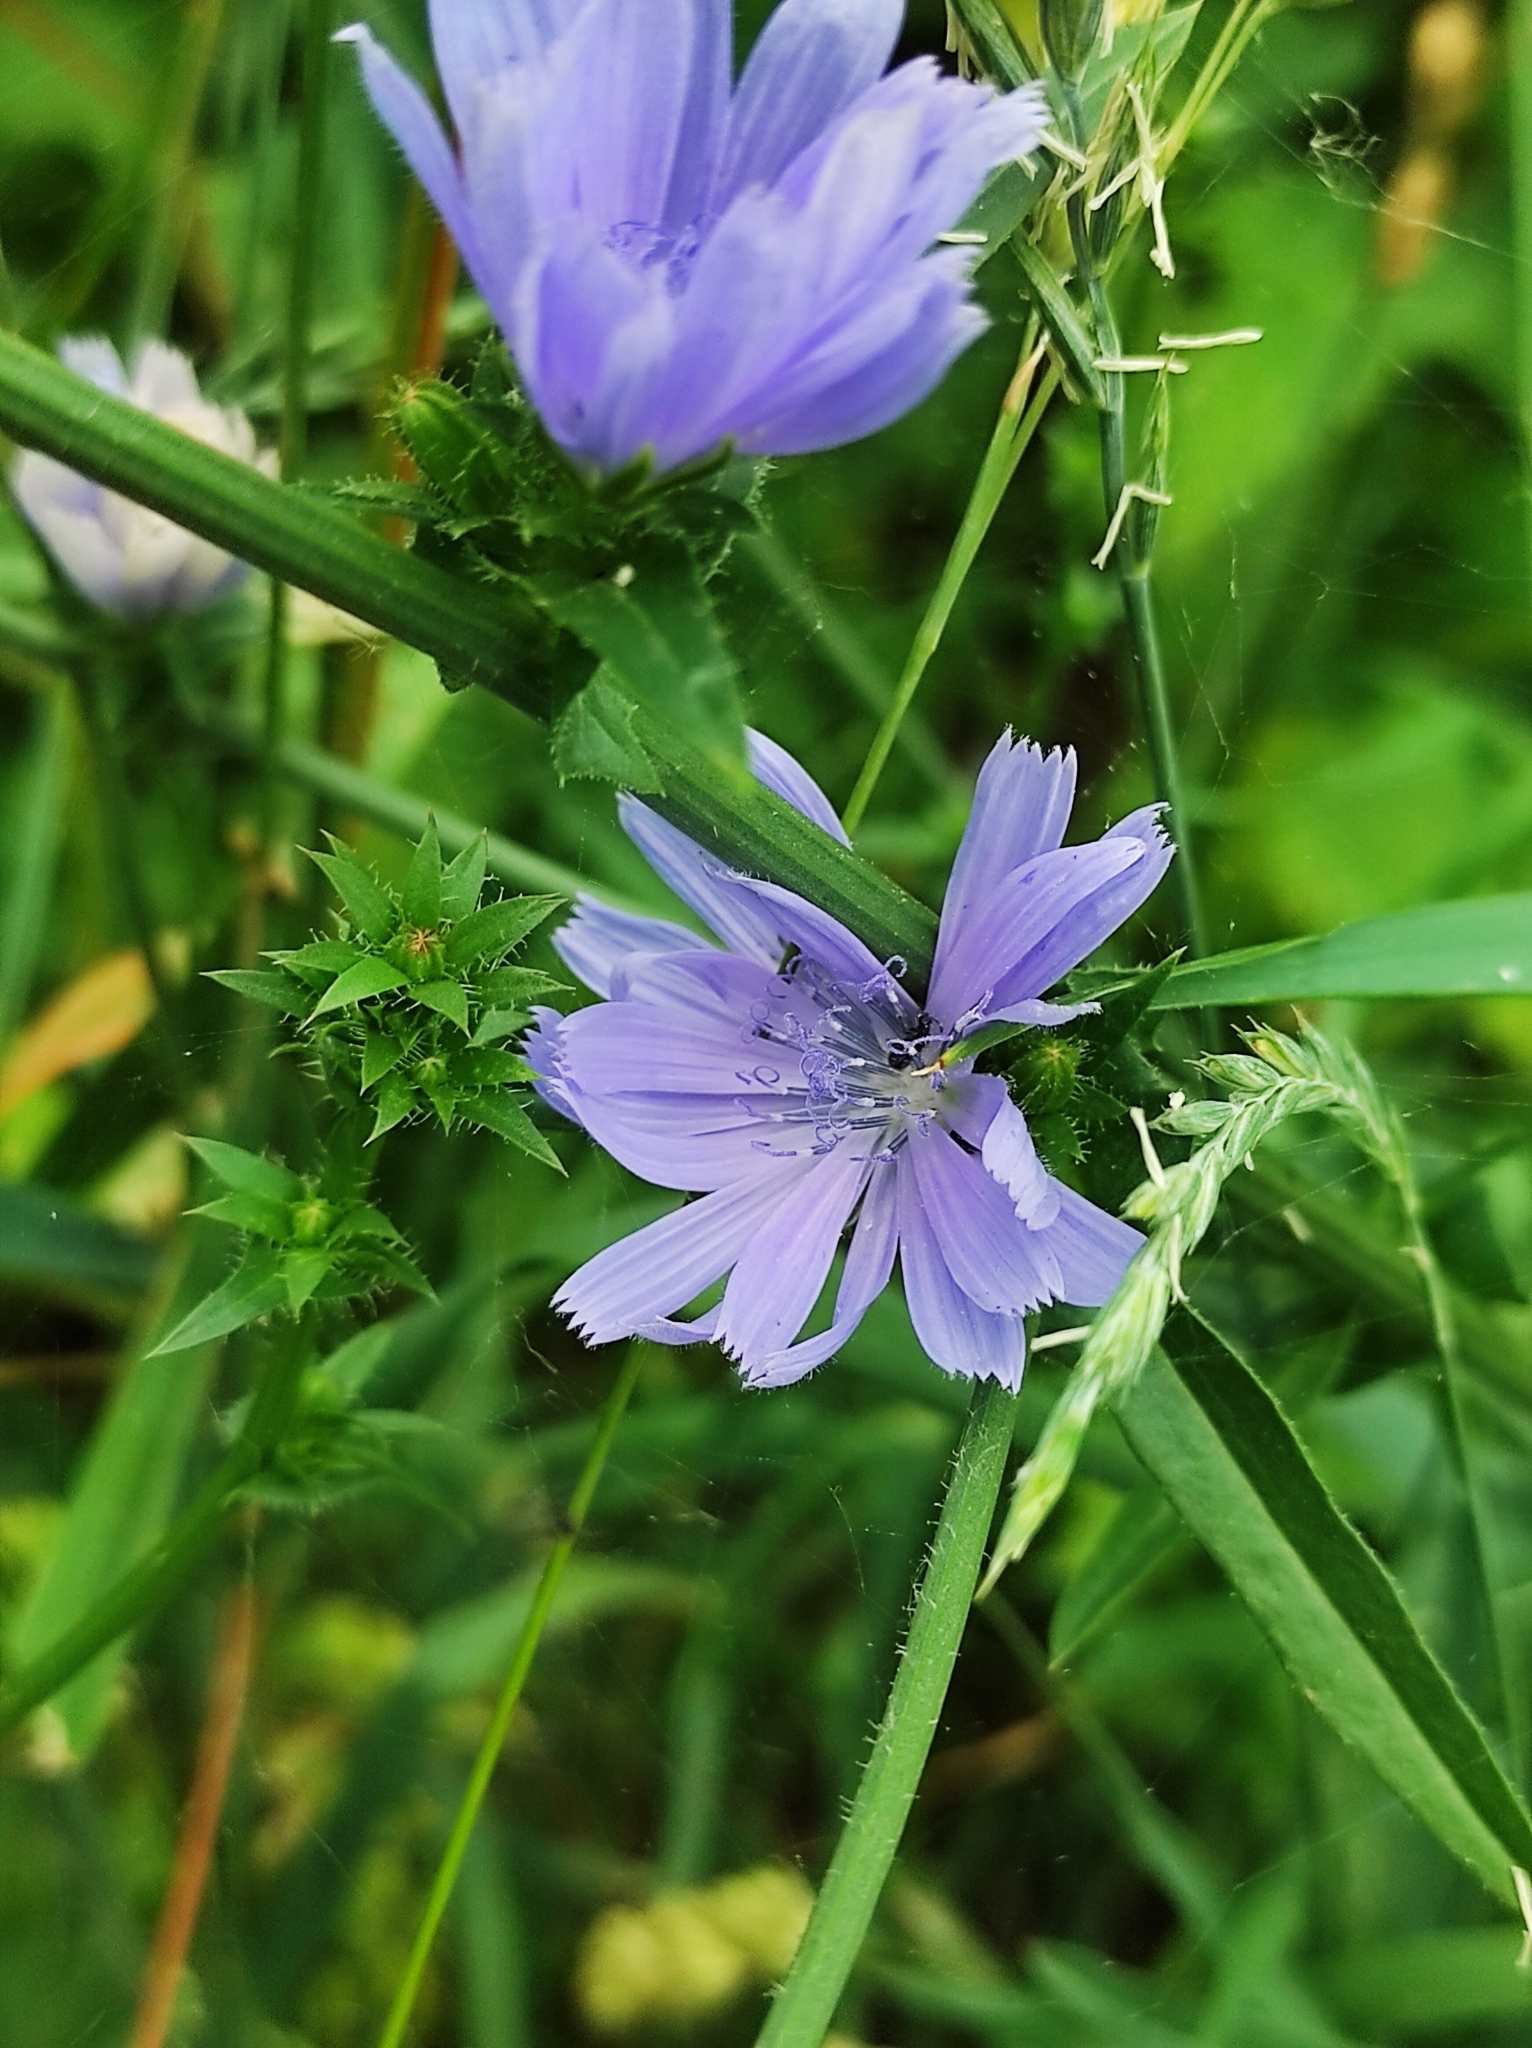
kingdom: Plantae
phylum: Tracheophyta
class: Magnoliopsida
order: Asterales
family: Asteraceae
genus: Cichorium
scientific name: Cichorium intybus
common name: Chicory
